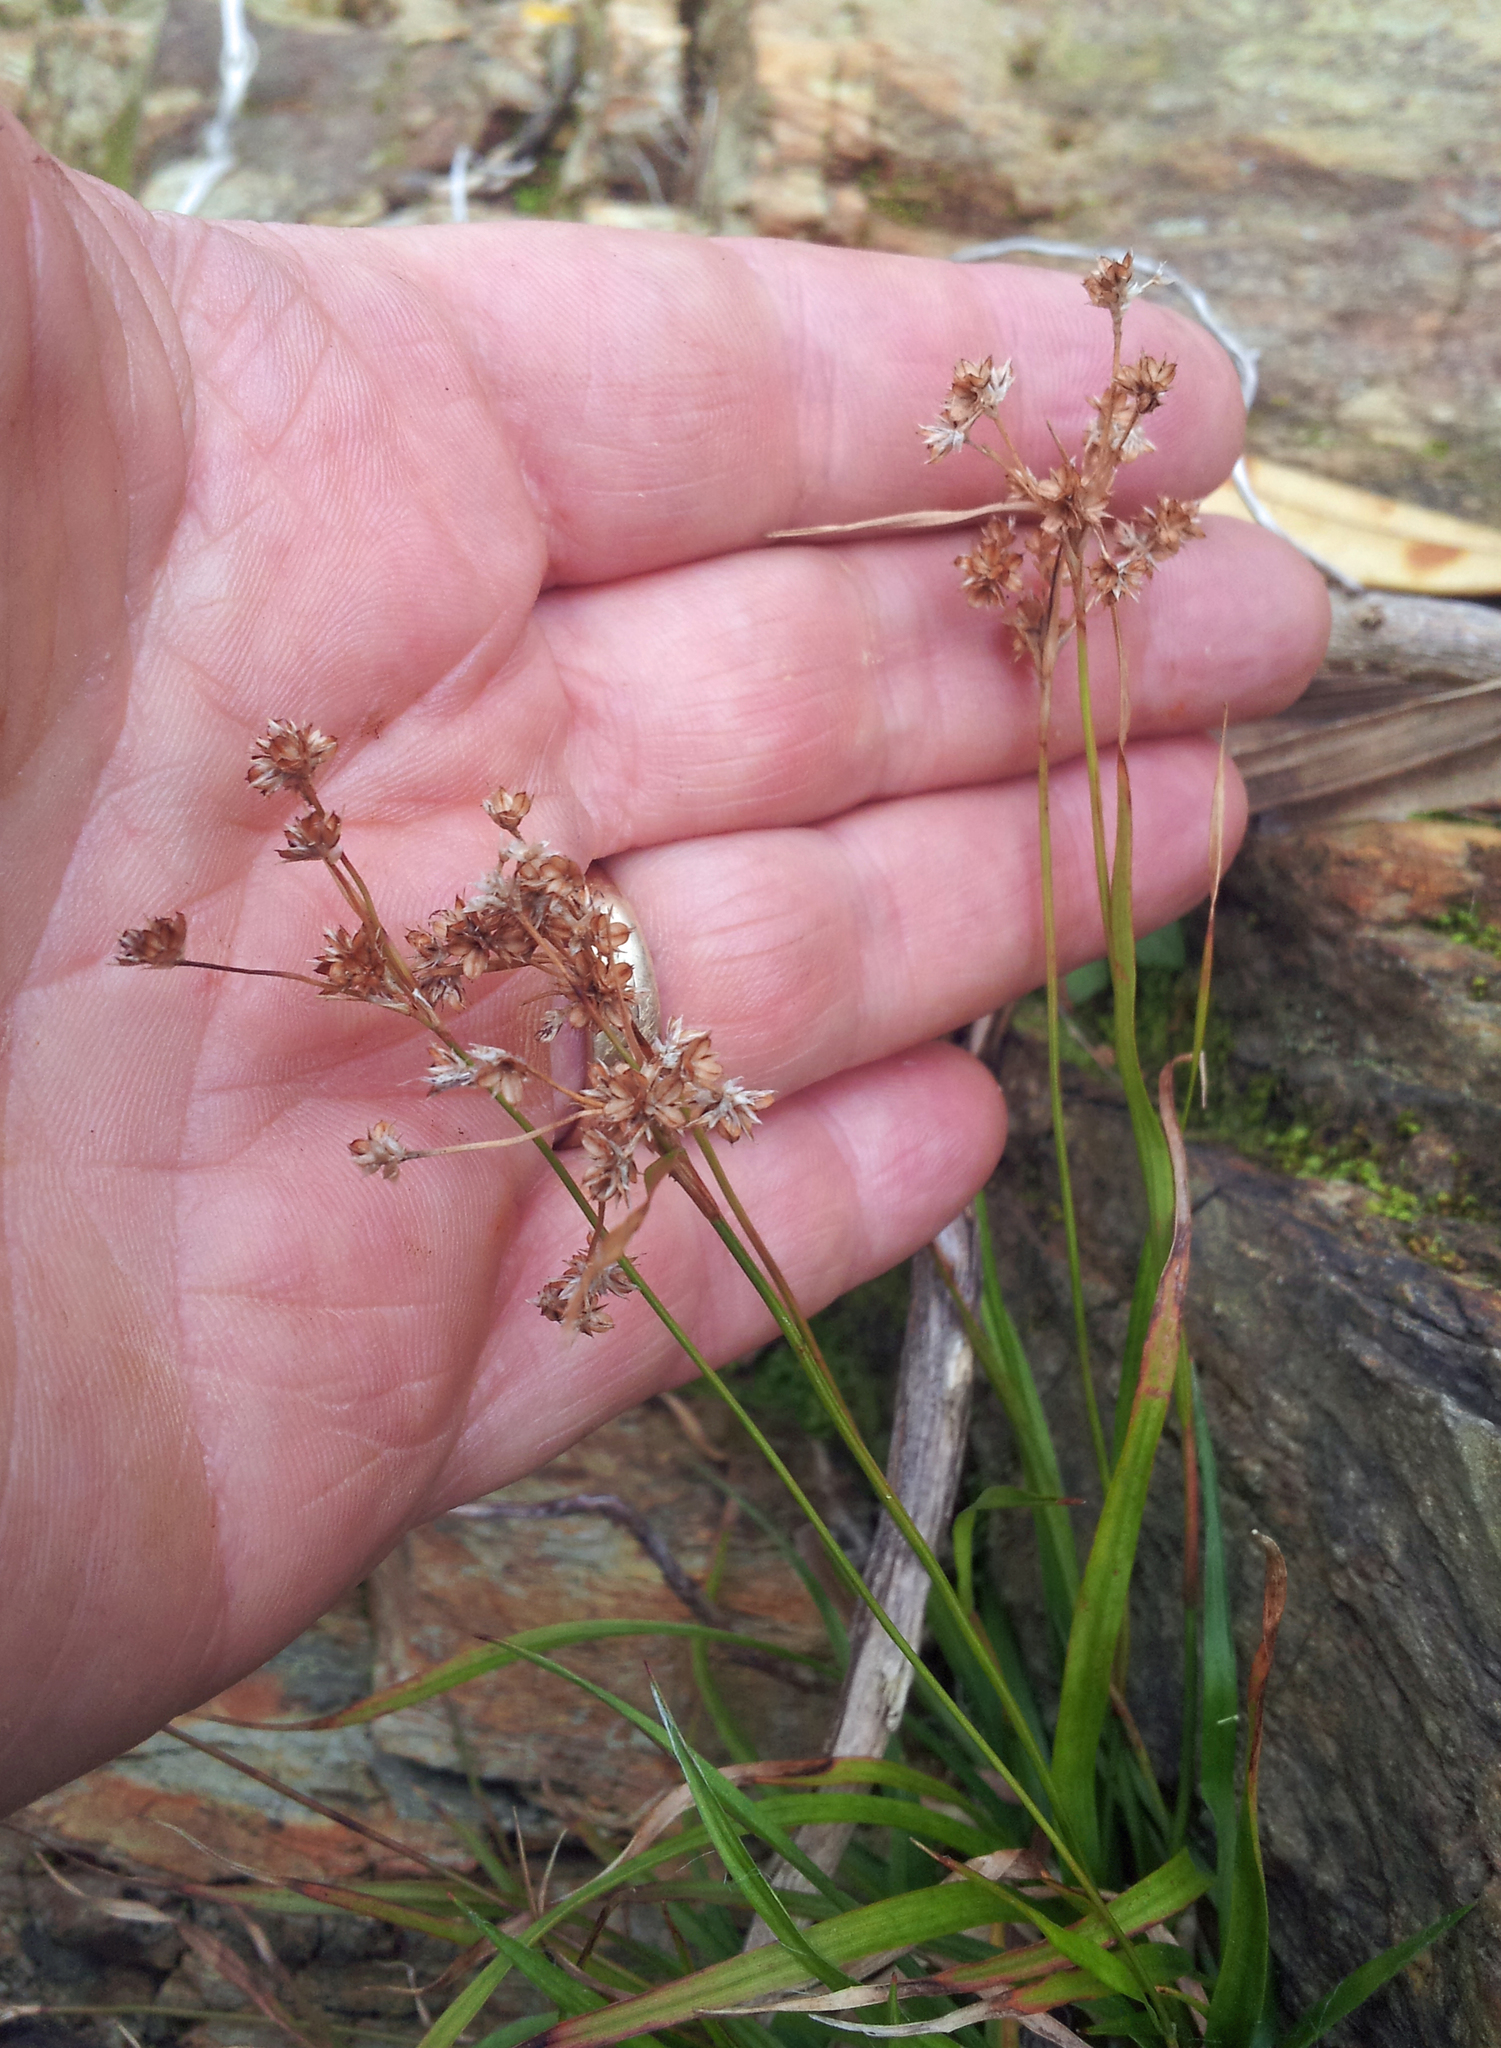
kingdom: Plantae
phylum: Tracheophyta
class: Liliopsida
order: Poales
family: Juncaceae
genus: Luzula
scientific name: Luzula picta
